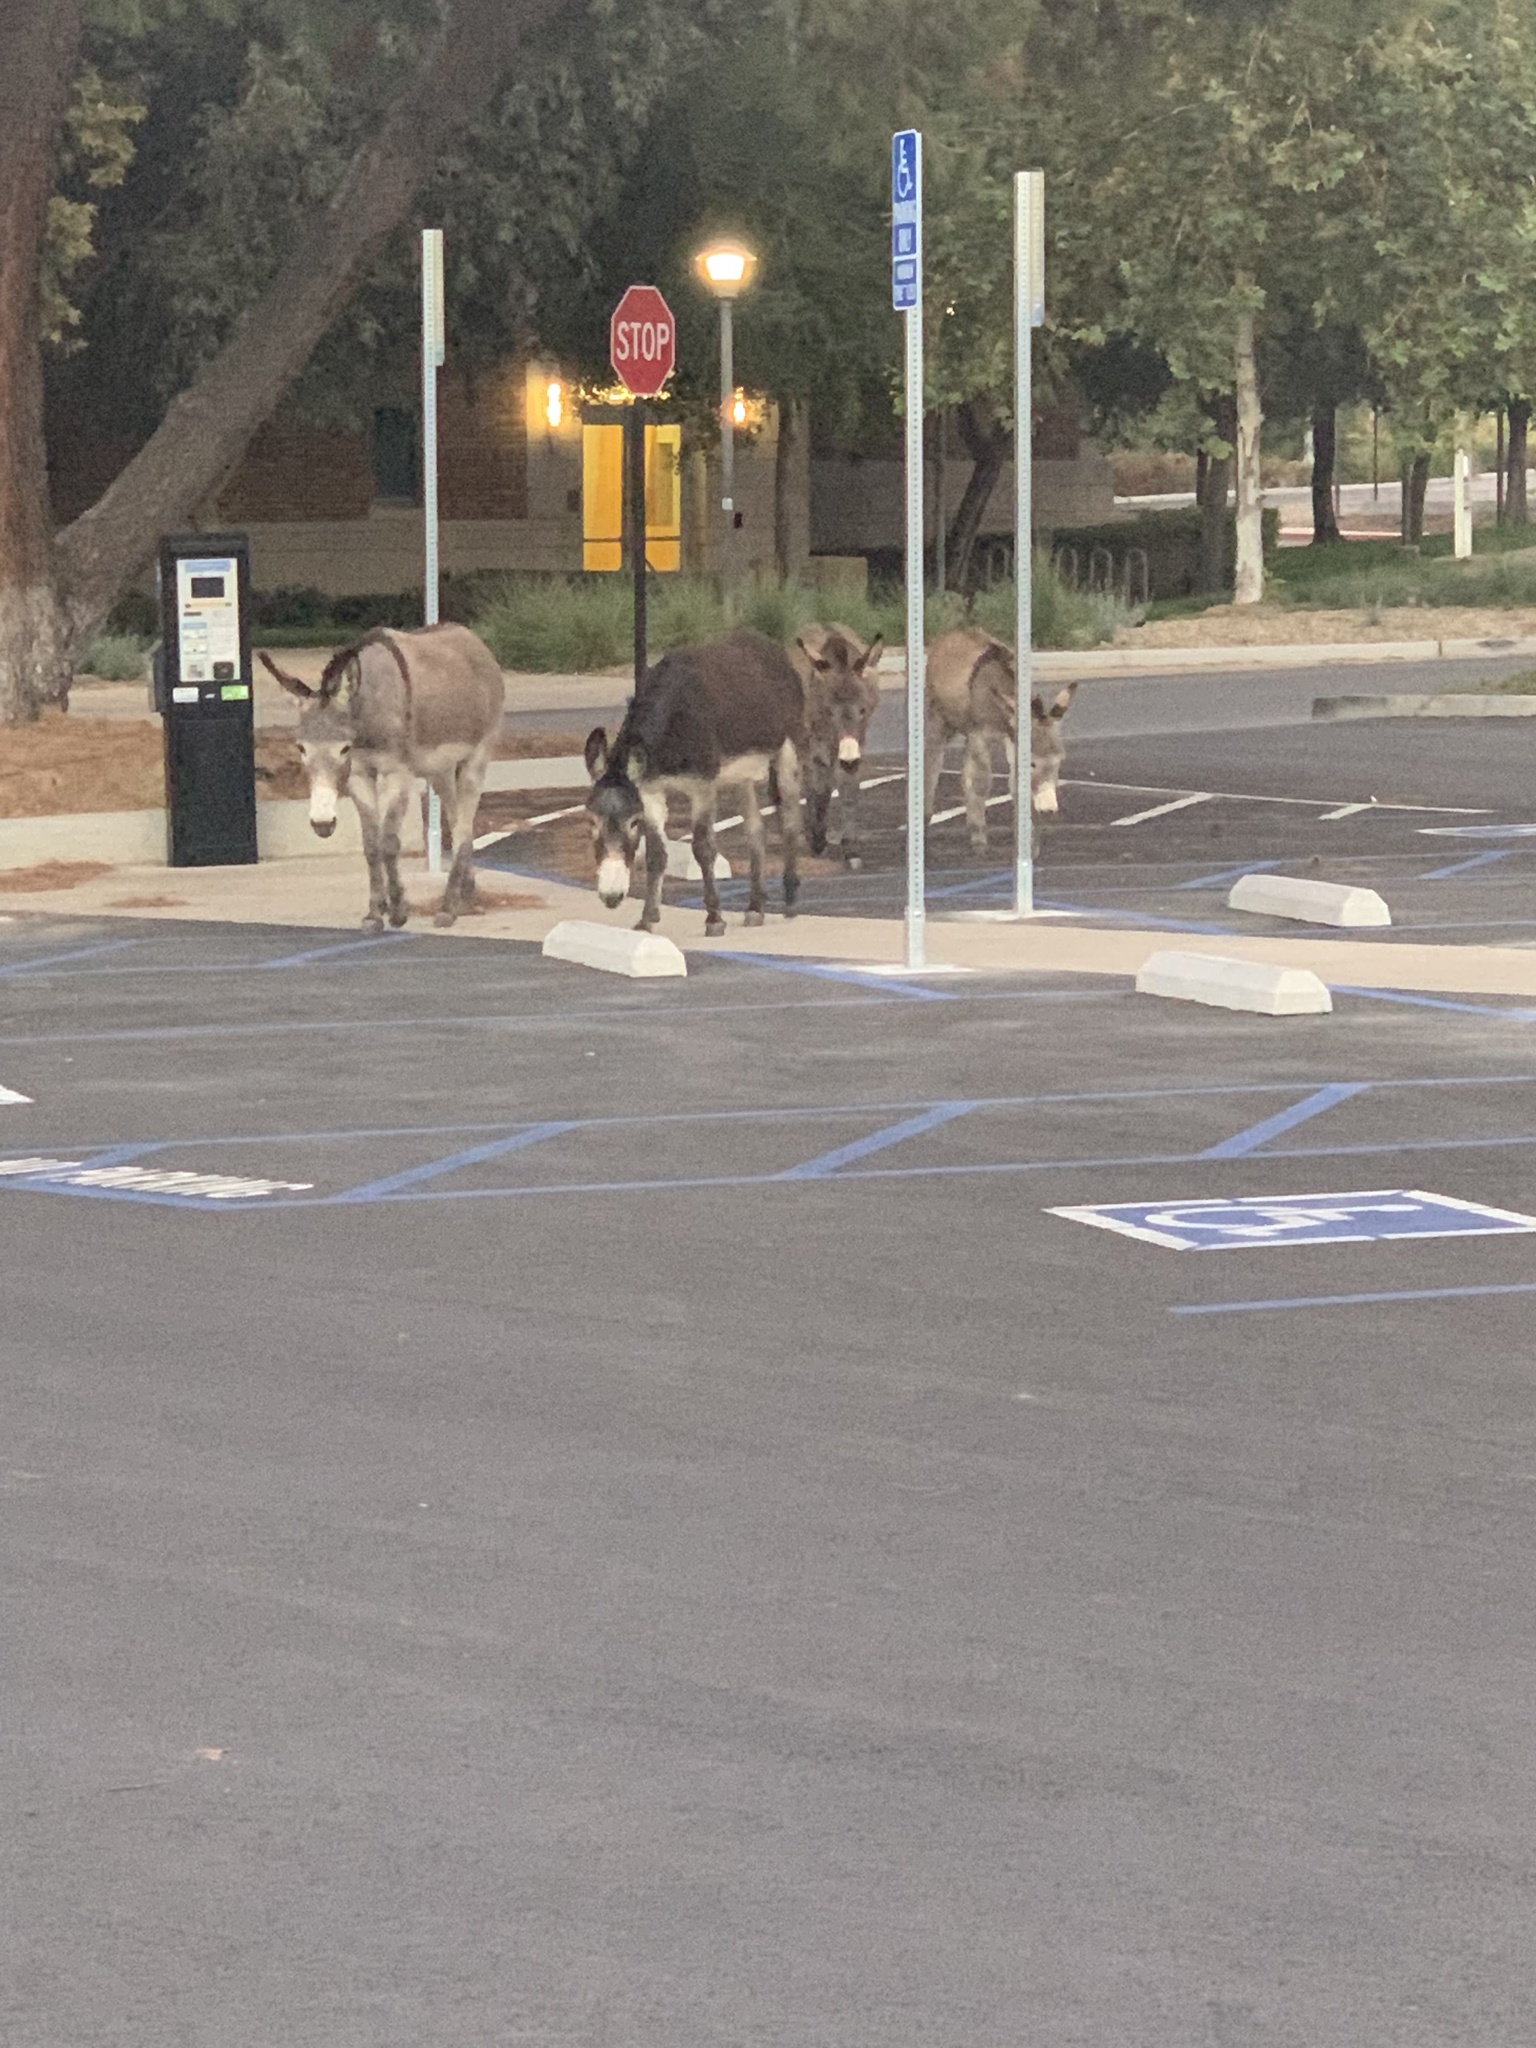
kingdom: Animalia
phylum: Chordata
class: Mammalia
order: Perissodactyla
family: Equidae
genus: Equus
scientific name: Equus asinus
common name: Ass
